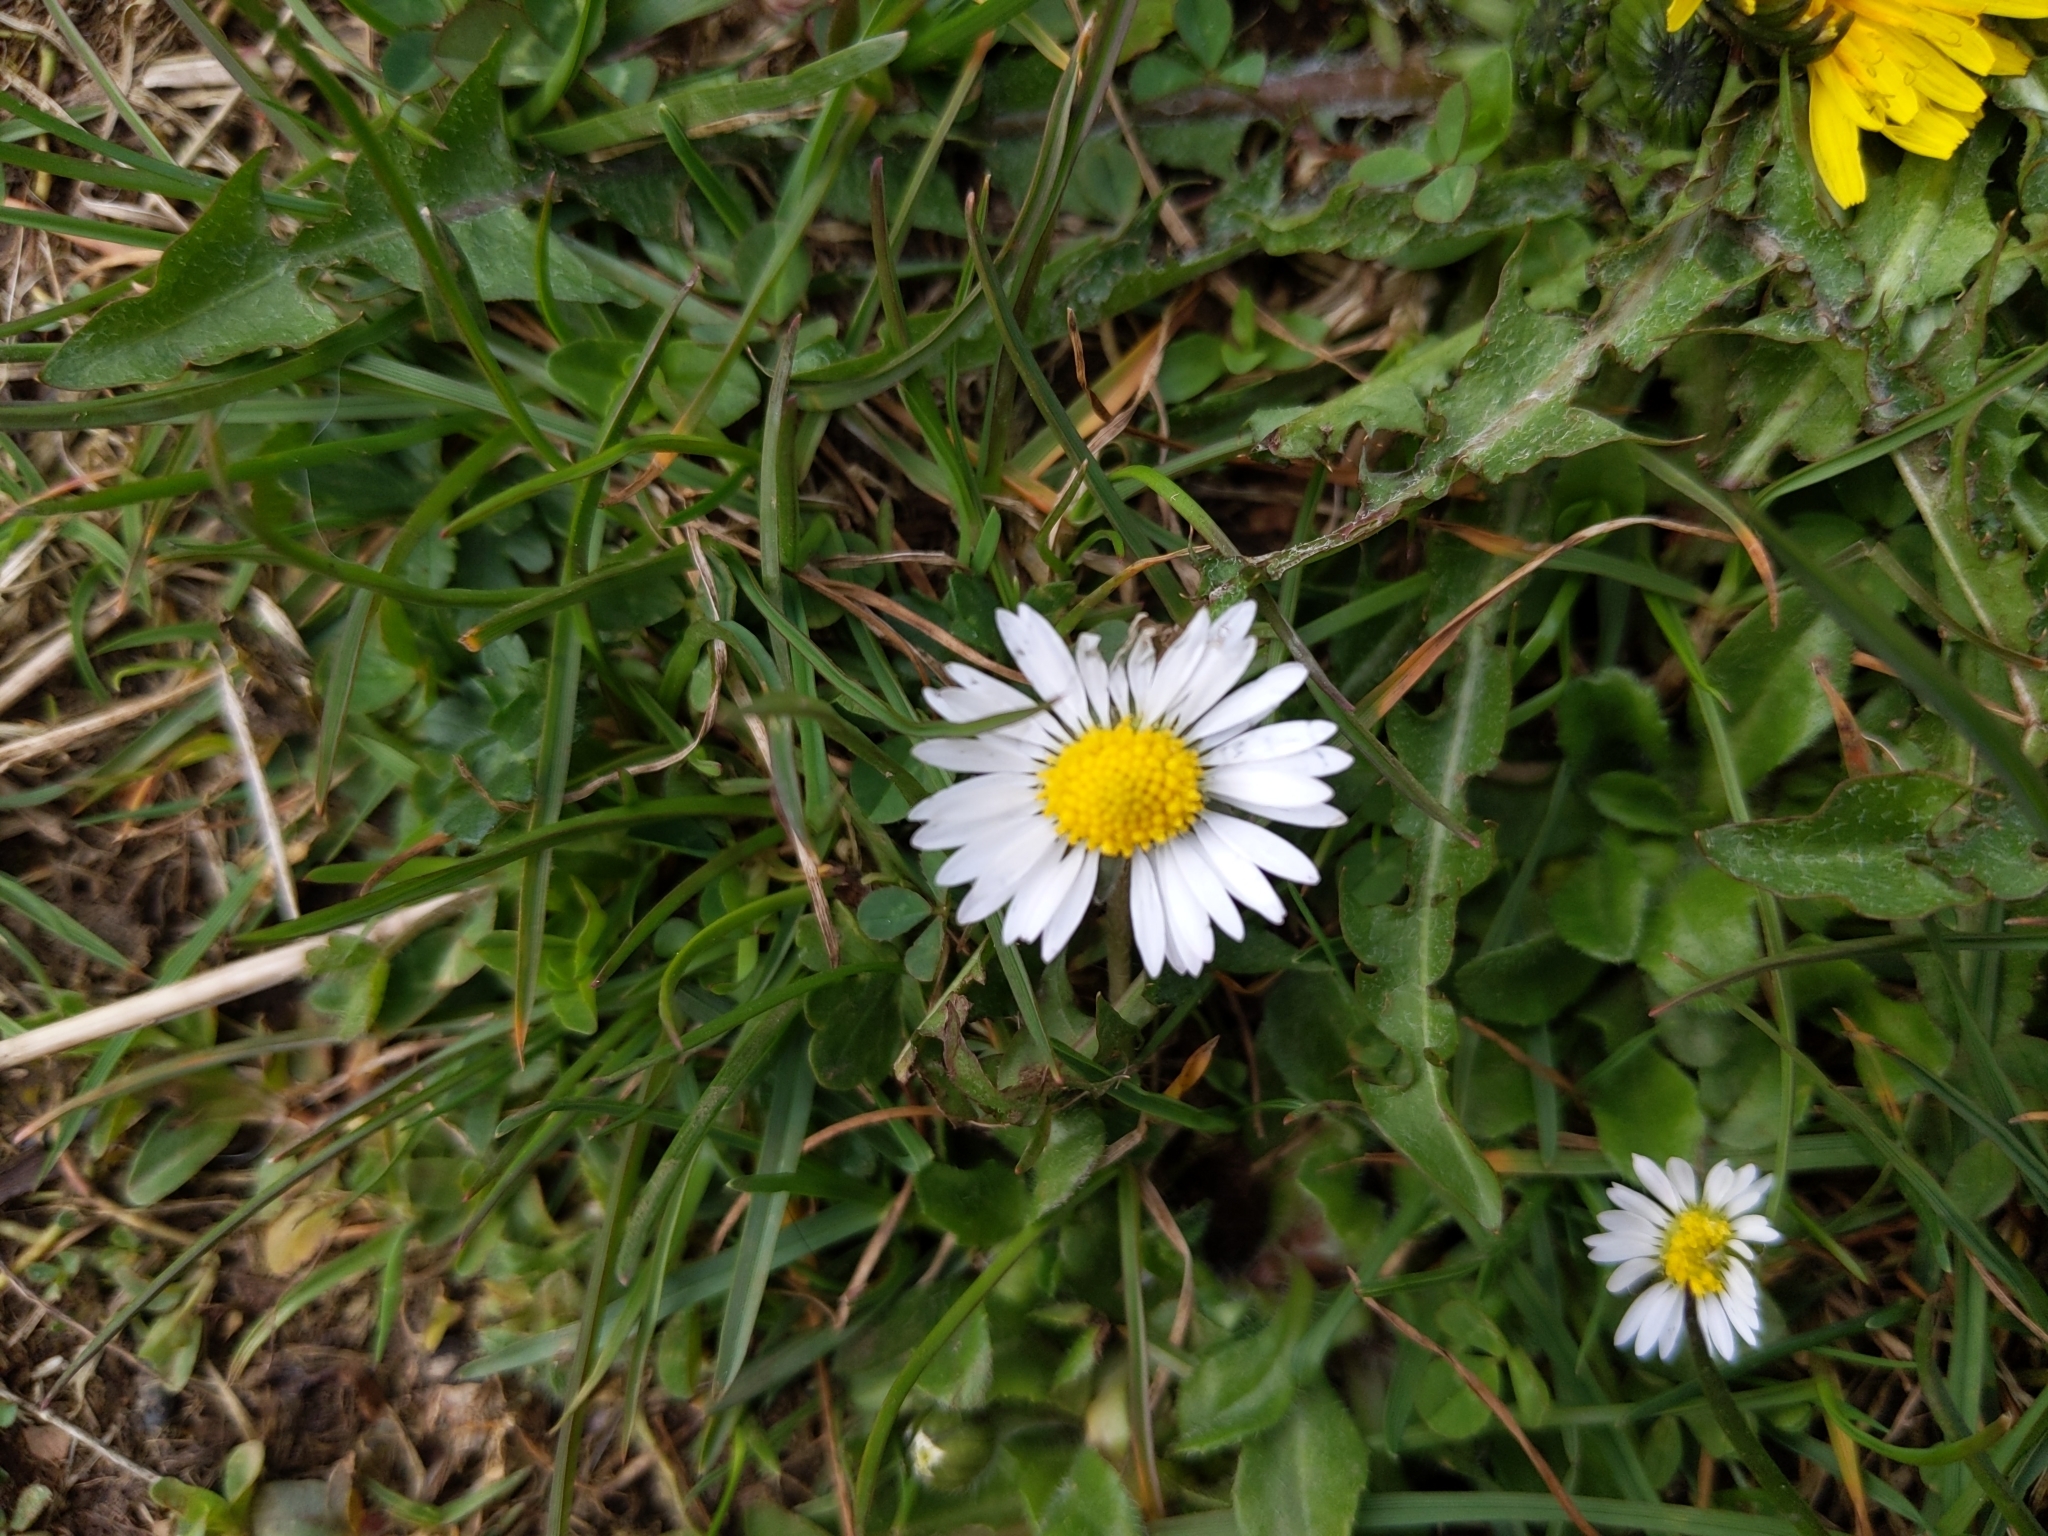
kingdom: Plantae
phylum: Tracheophyta
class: Magnoliopsida
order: Asterales
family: Asteraceae
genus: Bellis
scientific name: Bellis perennis
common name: Lawndaisy
